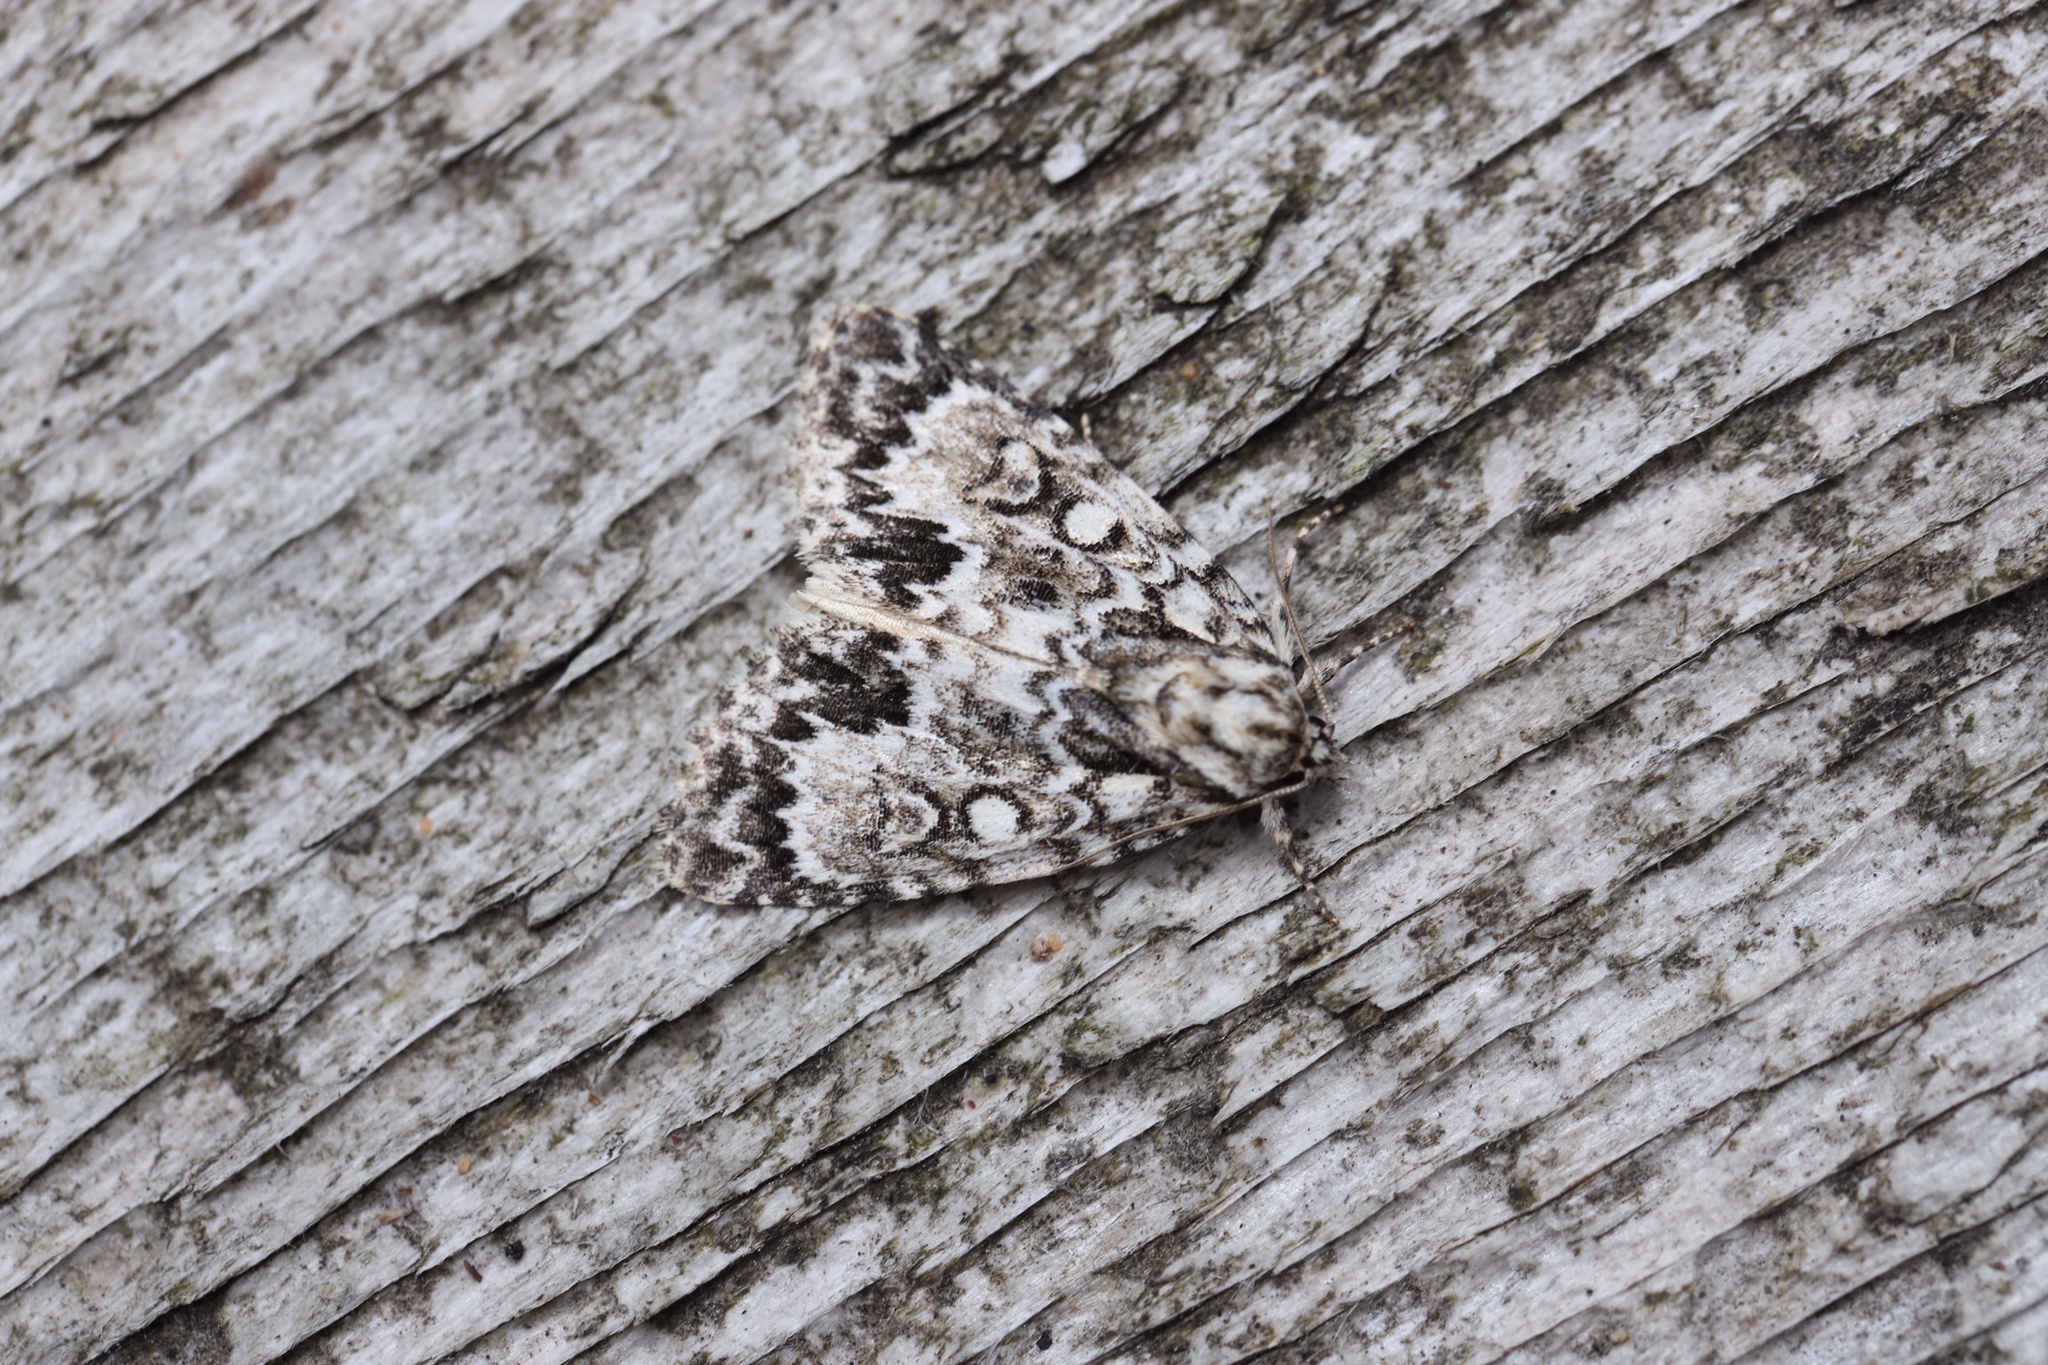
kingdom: Animalia
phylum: Arthropoda
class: Insecta
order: Lepidoptera
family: Noctuidae
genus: Acronicta
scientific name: Acronicta fragilis
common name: Fragile dagger
